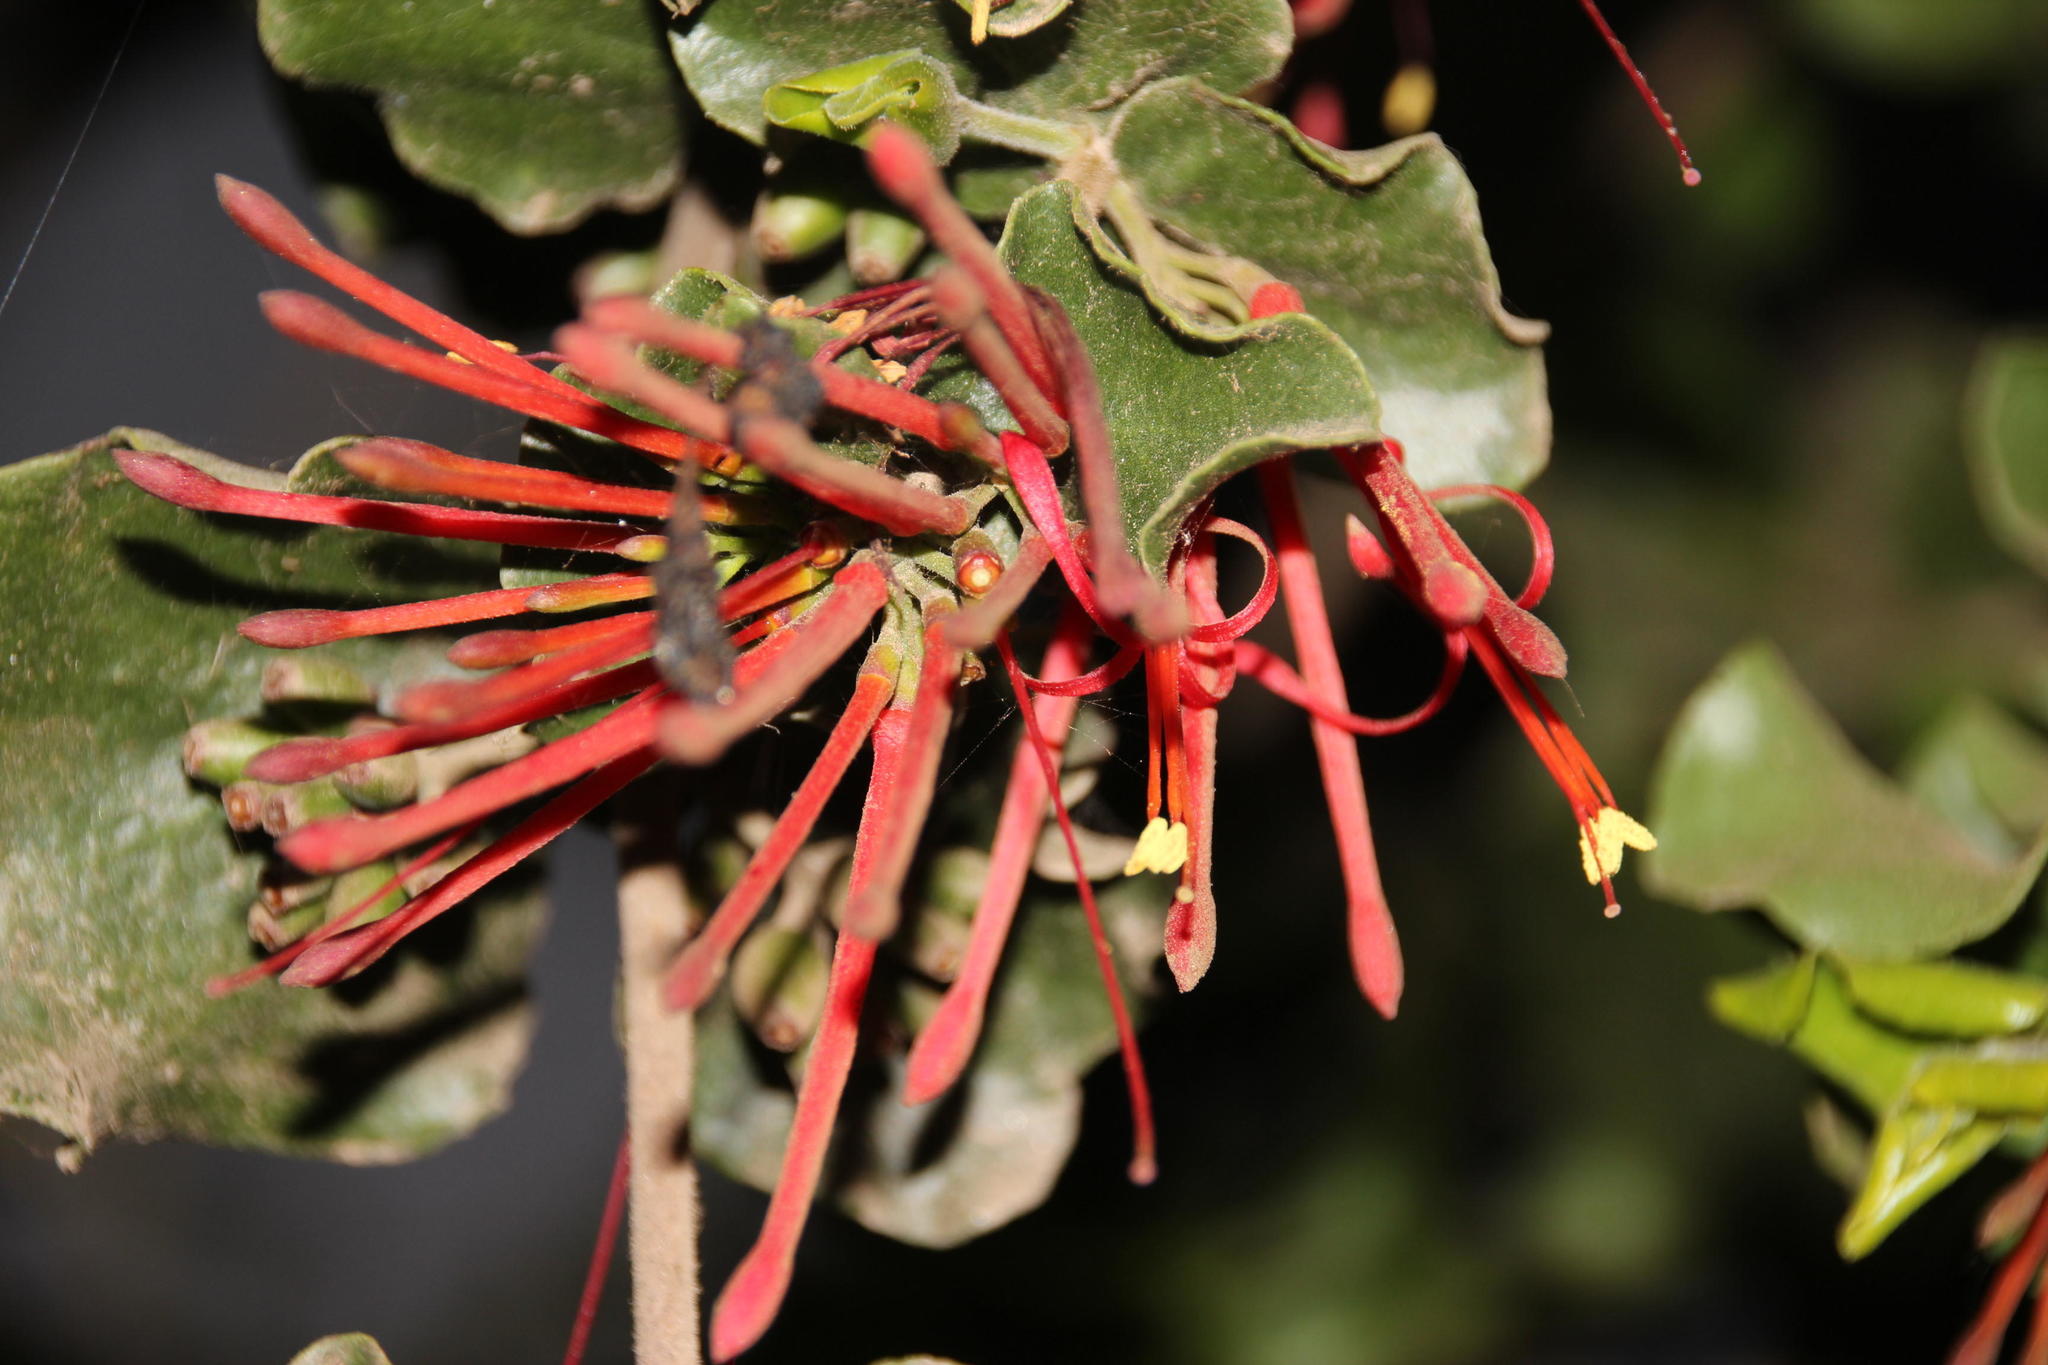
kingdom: Plantae
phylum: Tracheophyta
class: Magnoliopsida
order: Santalales
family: Loranthaceae
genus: Tristerix
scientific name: Tristerix corymbosus
